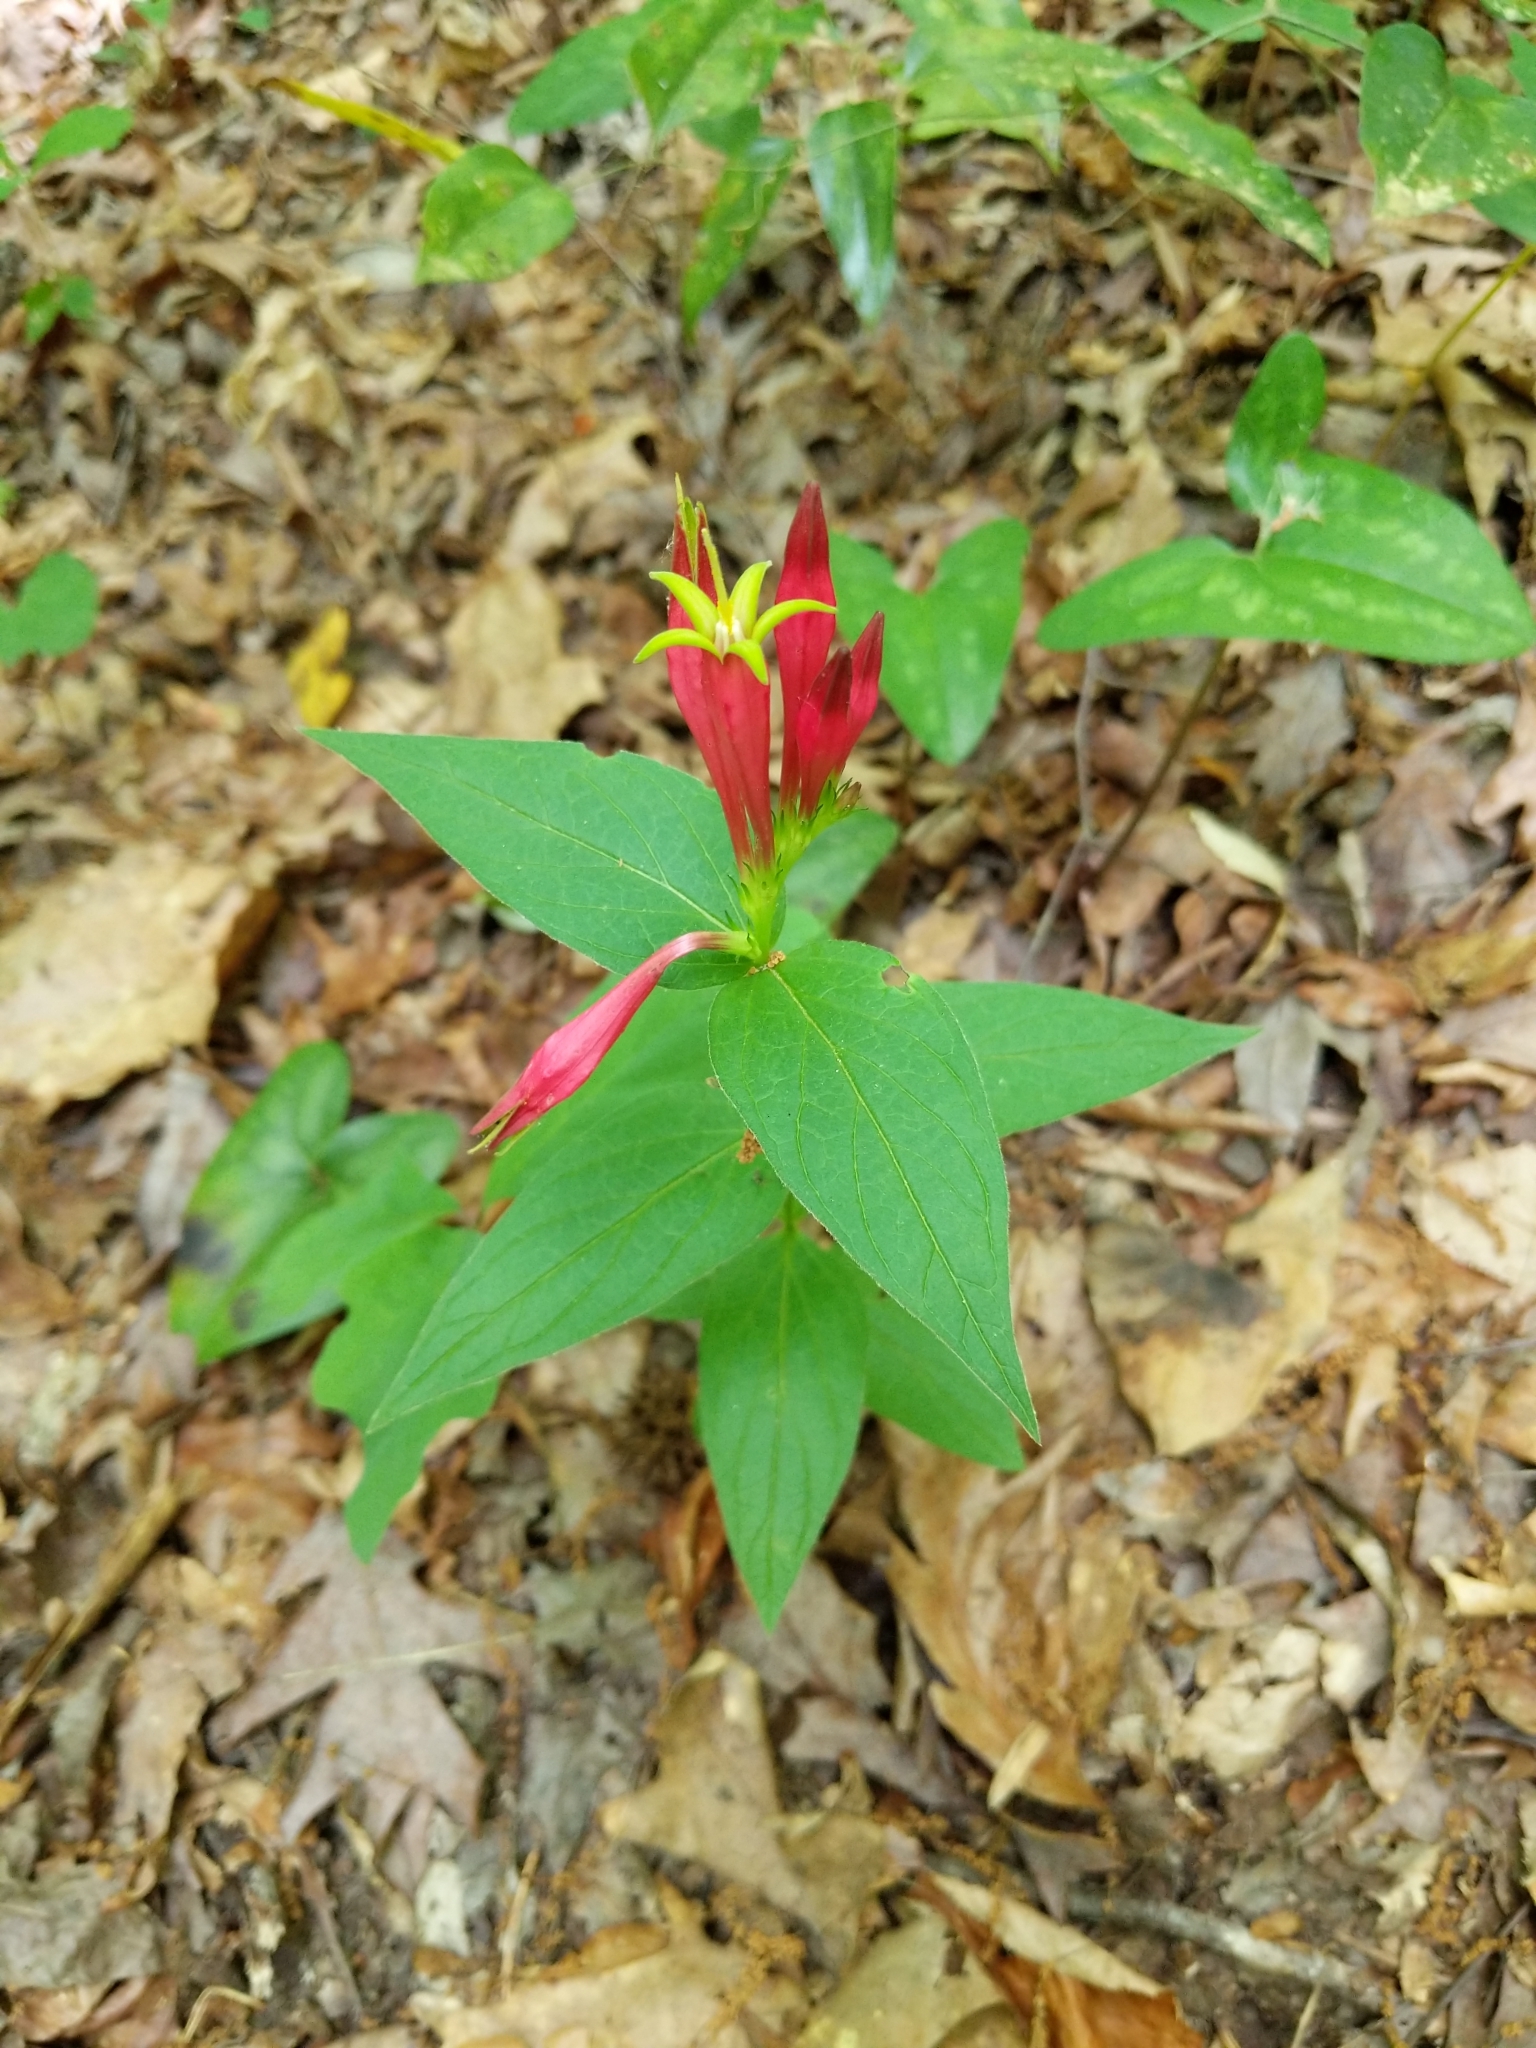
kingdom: Plantae
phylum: Tracheophyta
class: Magnoliopsida
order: Gentianales
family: Loganiaceae
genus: Spigelia
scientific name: Spigelia marilandica
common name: Indian-pink
